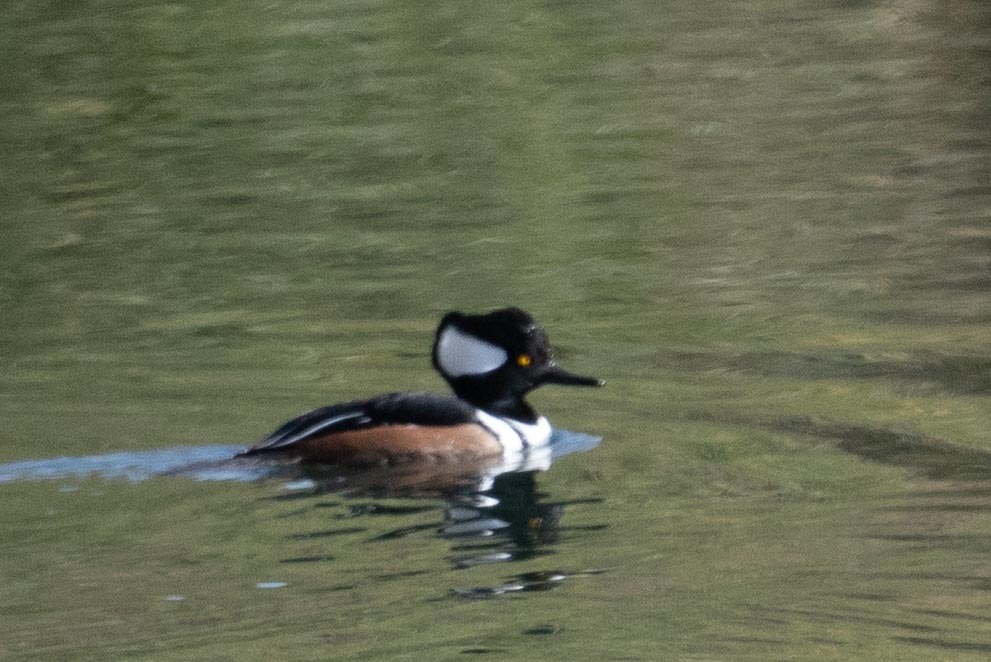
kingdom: Animalia
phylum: Chordata
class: Aves
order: Anseriformes
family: Anatidae
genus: Lophodytes
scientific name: Lophodytes cucullatus
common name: Hooded merganser
